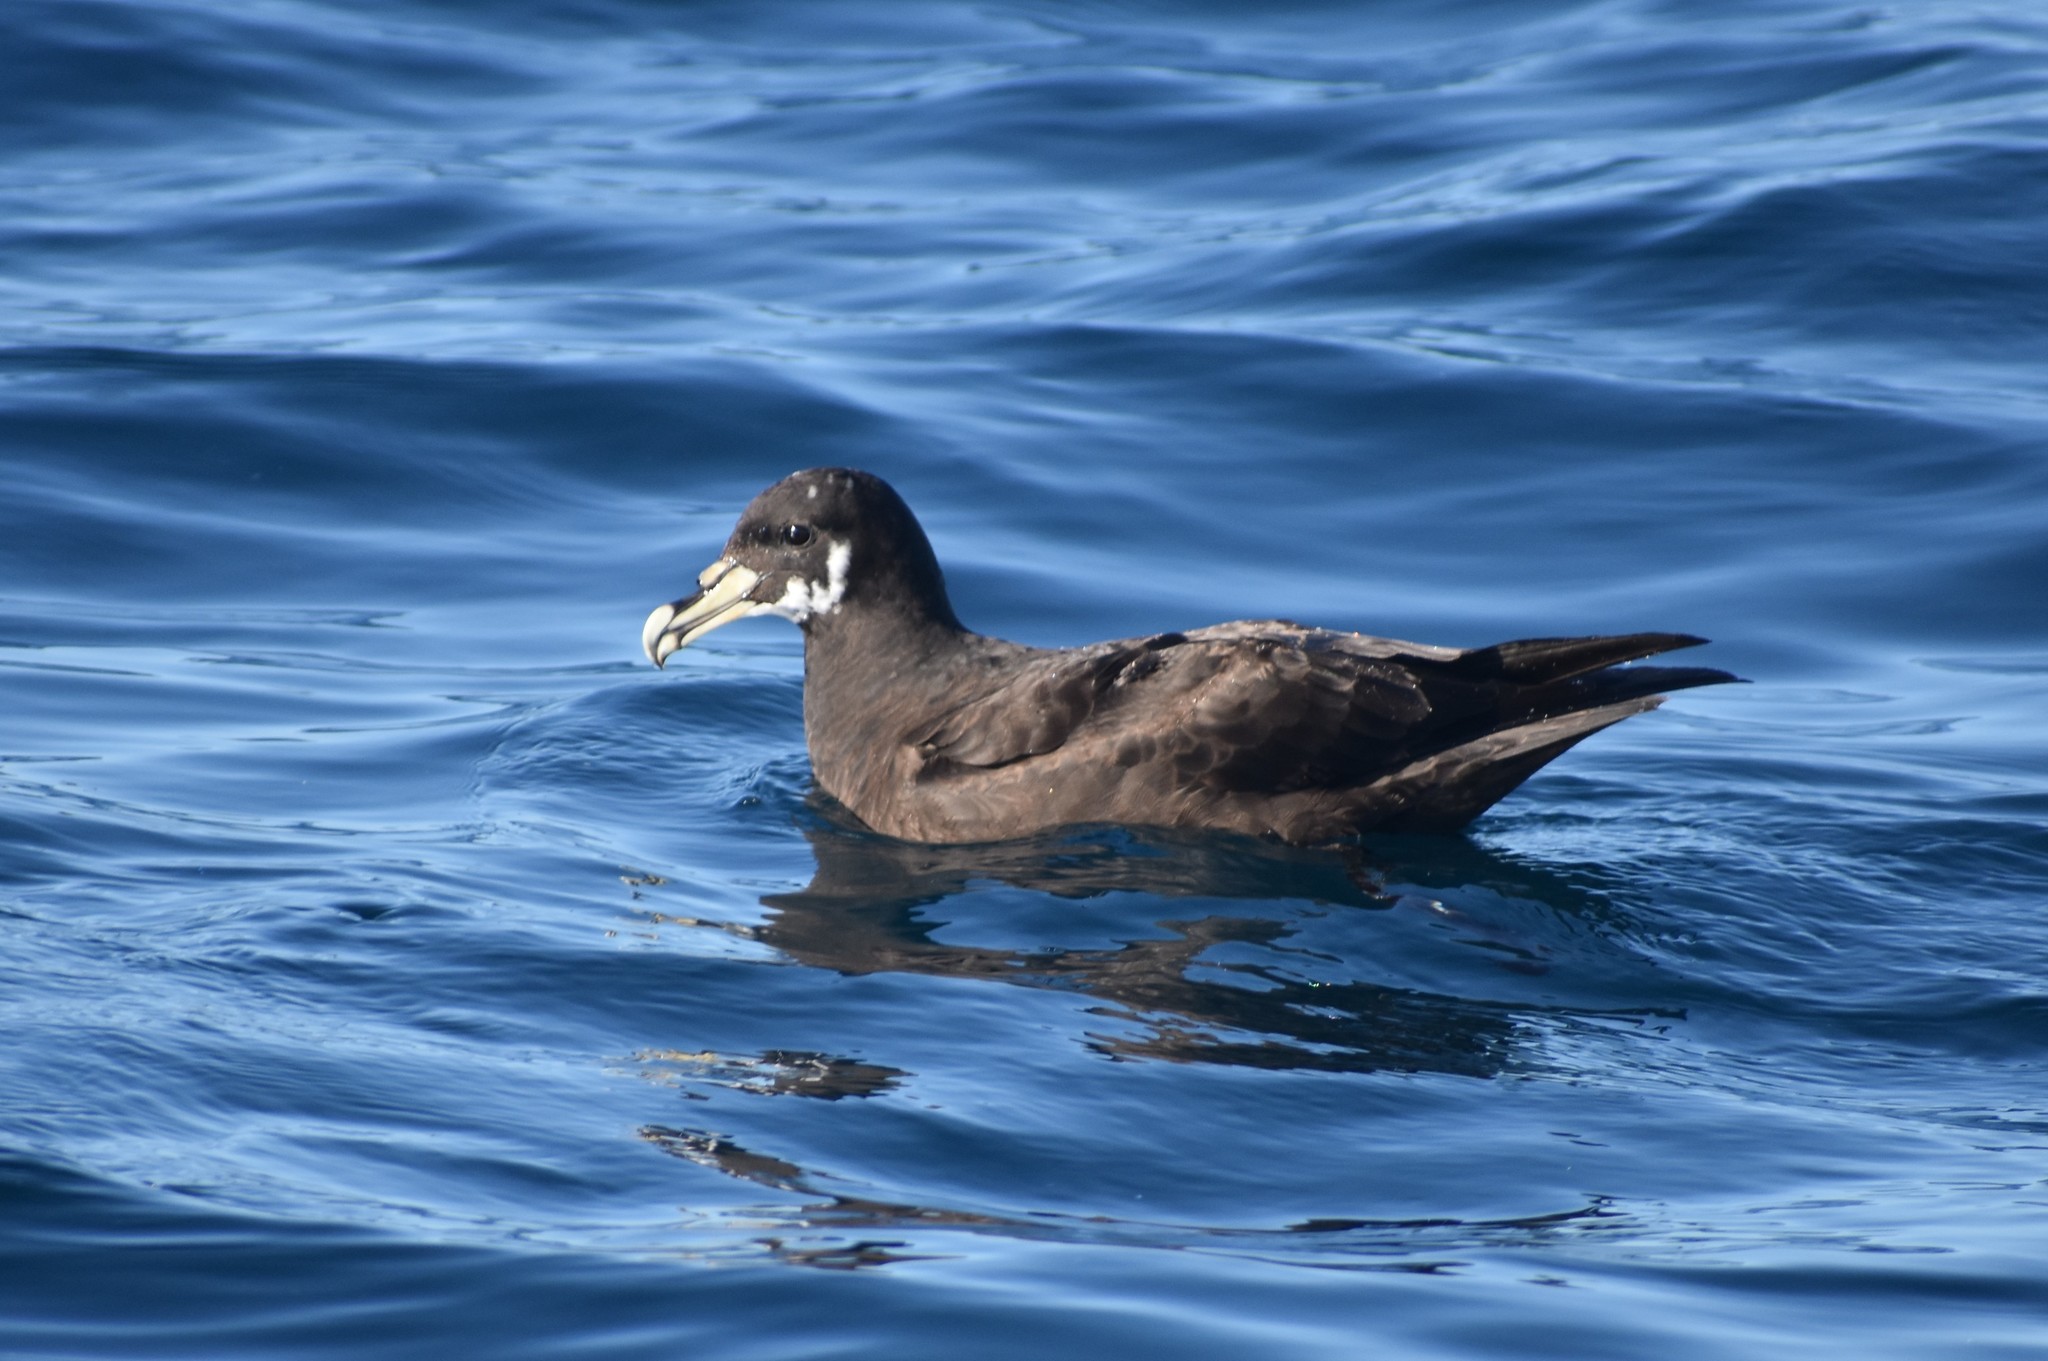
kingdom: Animalia
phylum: Chordata
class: Aves
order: Procellariiformes
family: Procellariidae
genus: Procellaria
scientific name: Procellaria aequinoctialis
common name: White-chinned petrel
